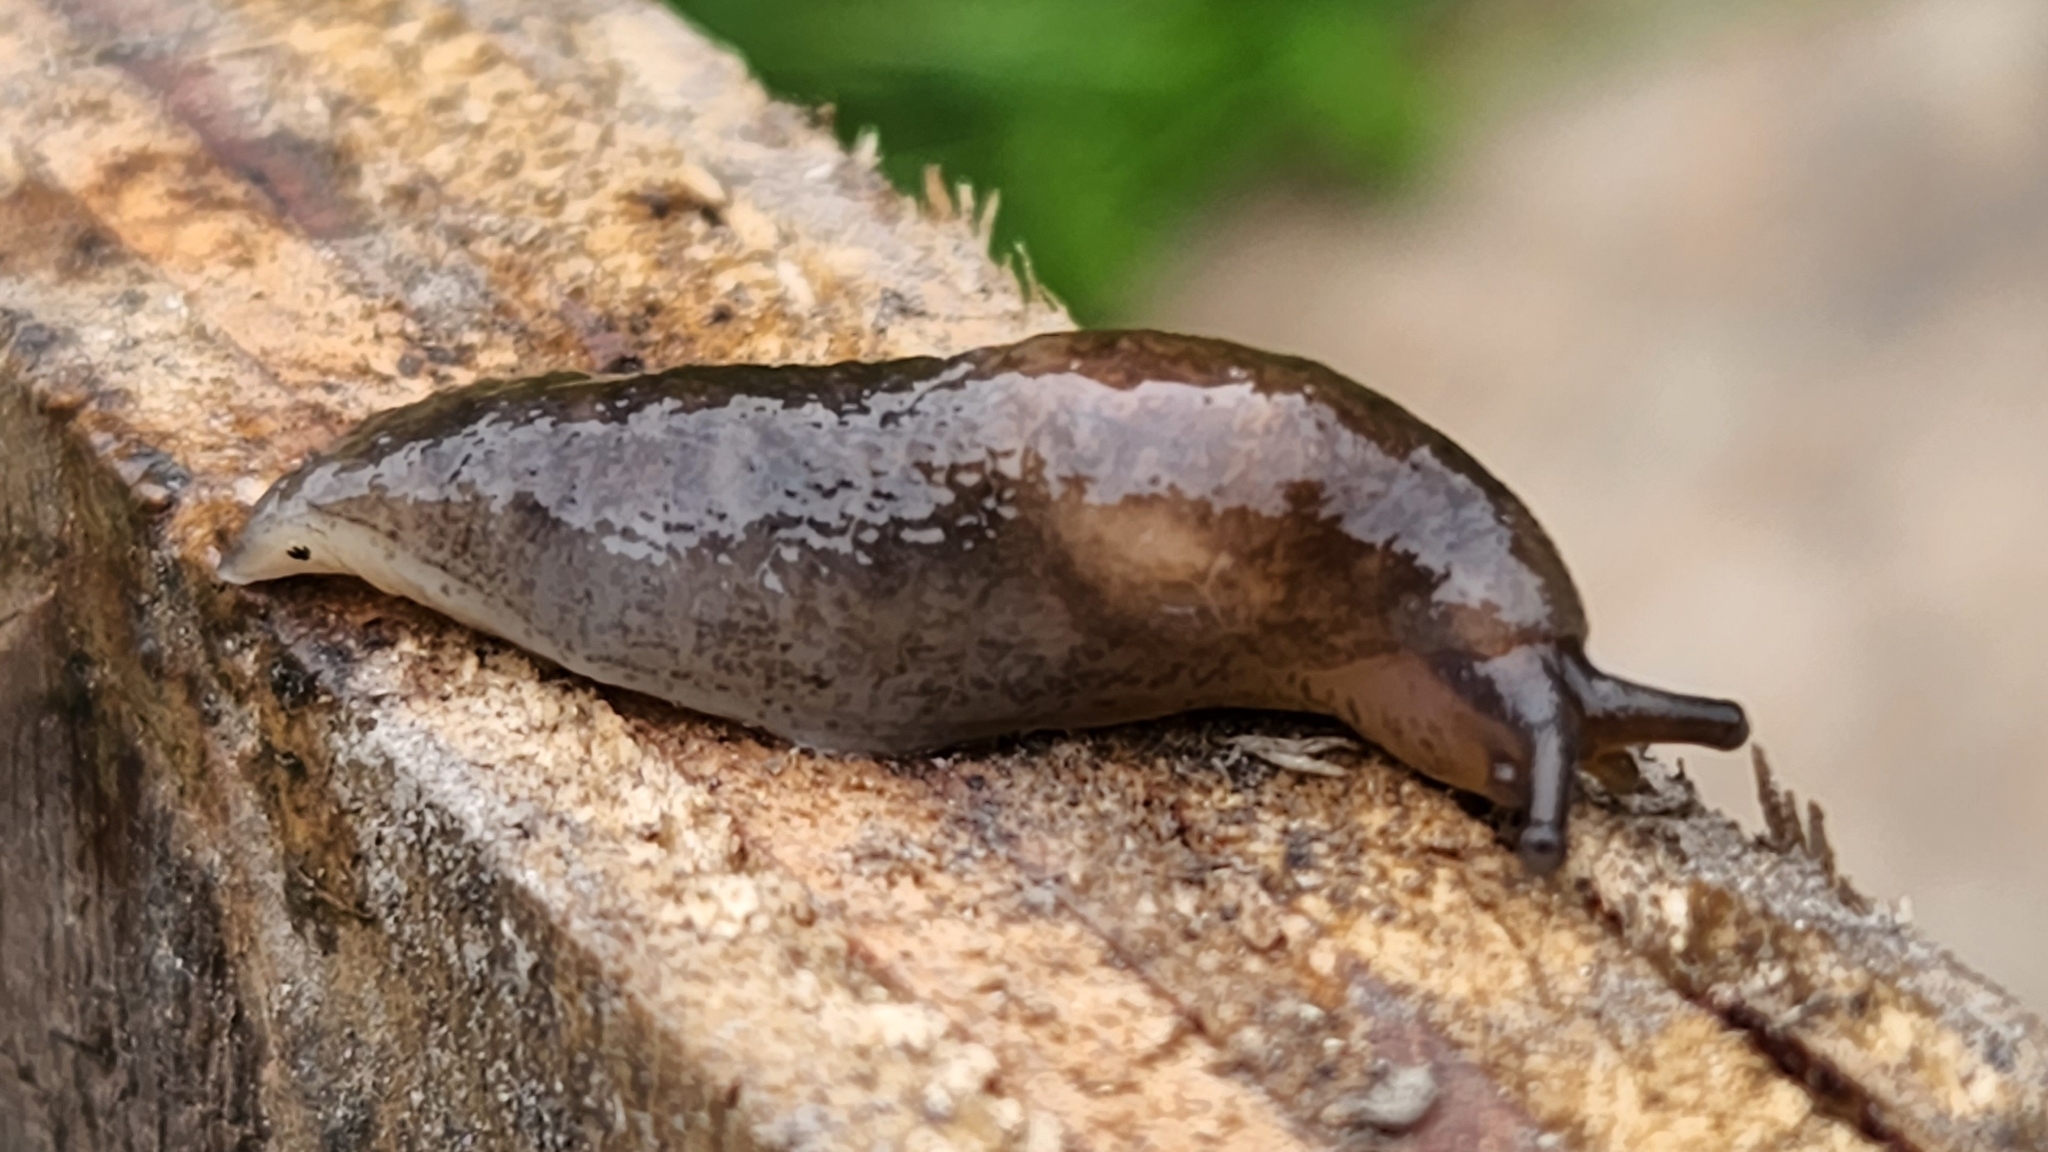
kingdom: Animalia
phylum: Mollusca
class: Gastropoda
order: Stylommatophora
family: Agriolimacidae
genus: Deroceras
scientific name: Deroceras laeve
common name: Marsh slug
